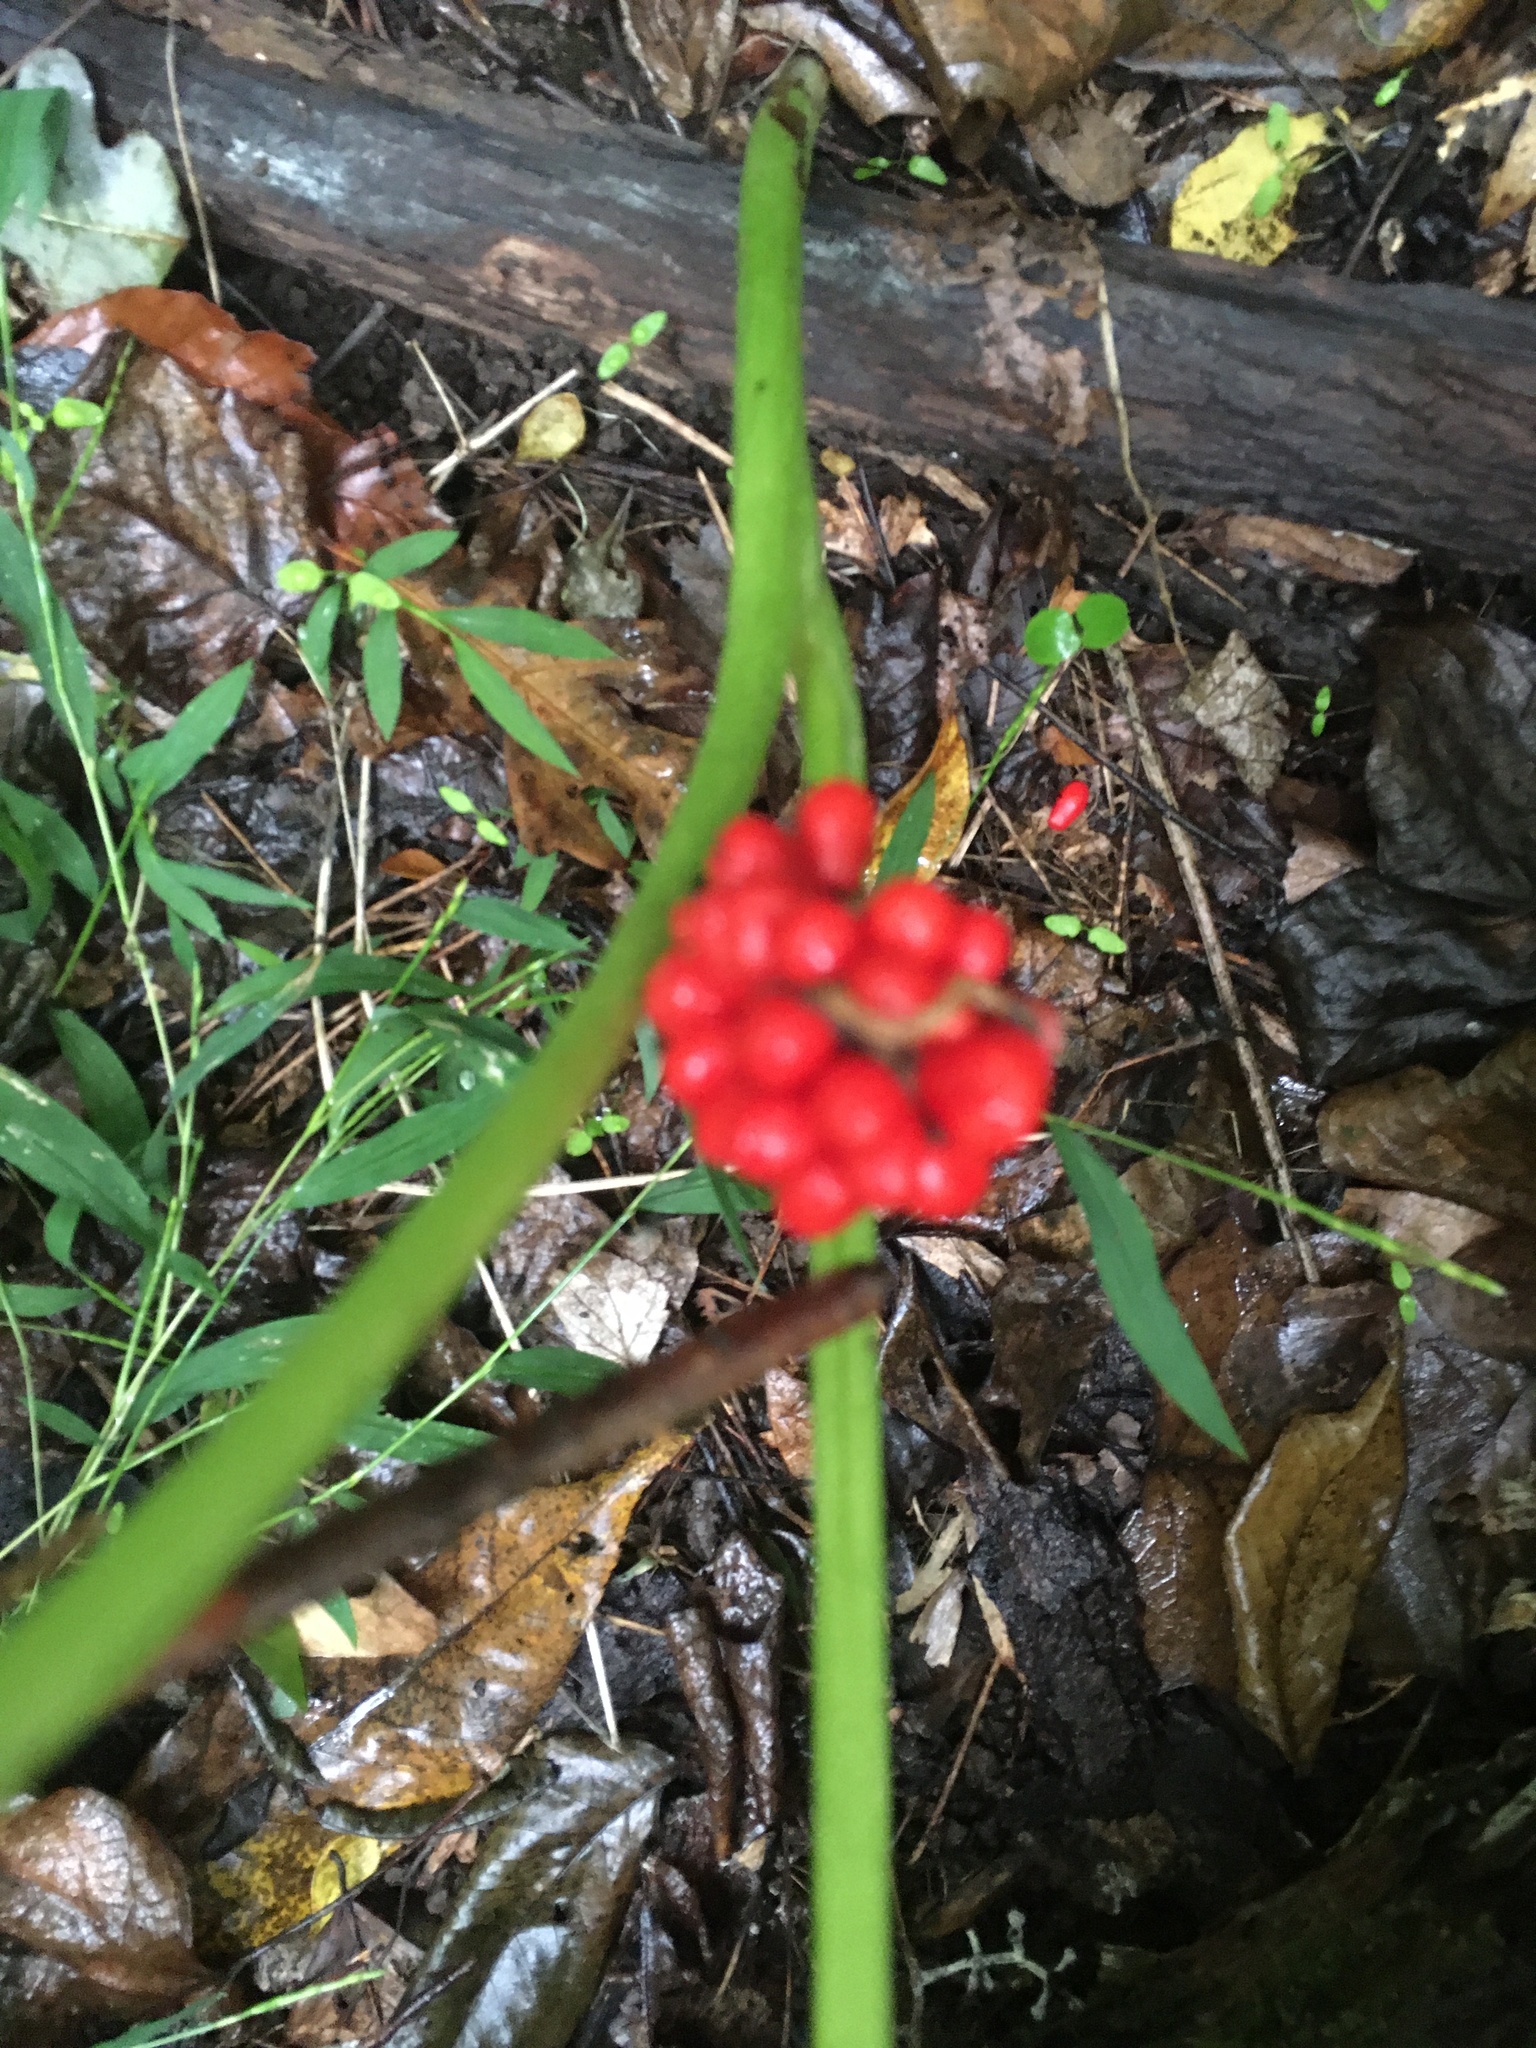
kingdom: Plantae
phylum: Tracheophyta
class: Liliopsida
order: Alismatales
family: Araceae
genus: Arisaema
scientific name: Arisaema triphyllum
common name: Jack-in-the-pulpit
